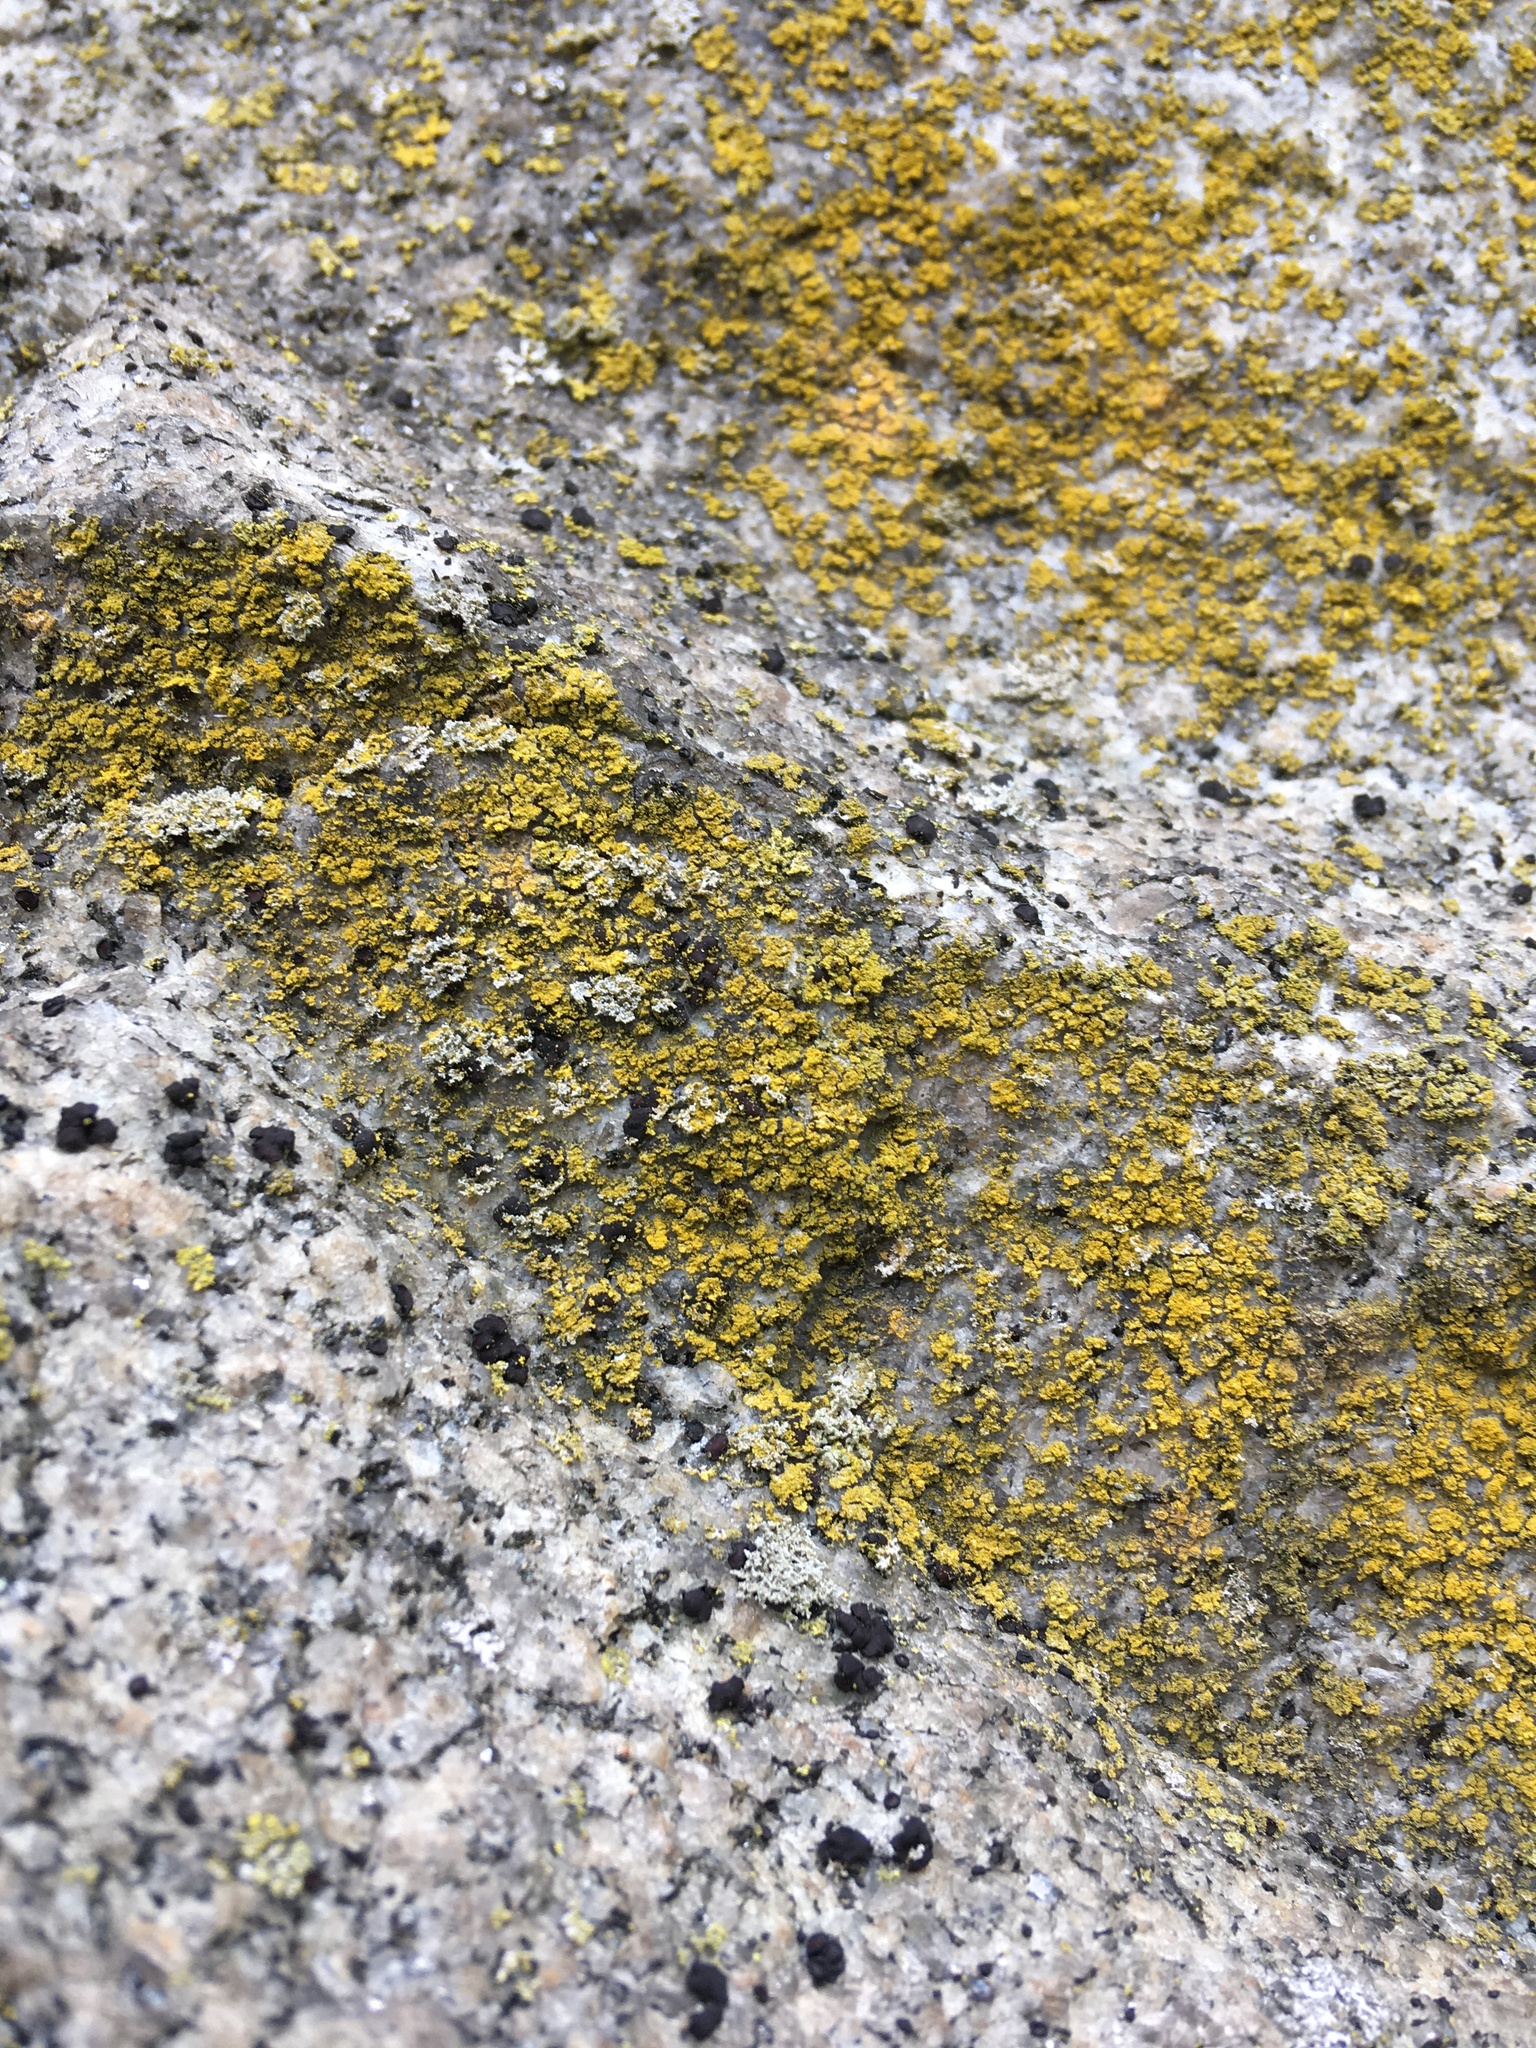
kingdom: Fungi
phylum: Ascomycota
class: Candelariomycetes
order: Candelariales
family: Candelariaceae
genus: Candelaria
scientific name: Candelaria concolor
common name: Candleflame lichen
